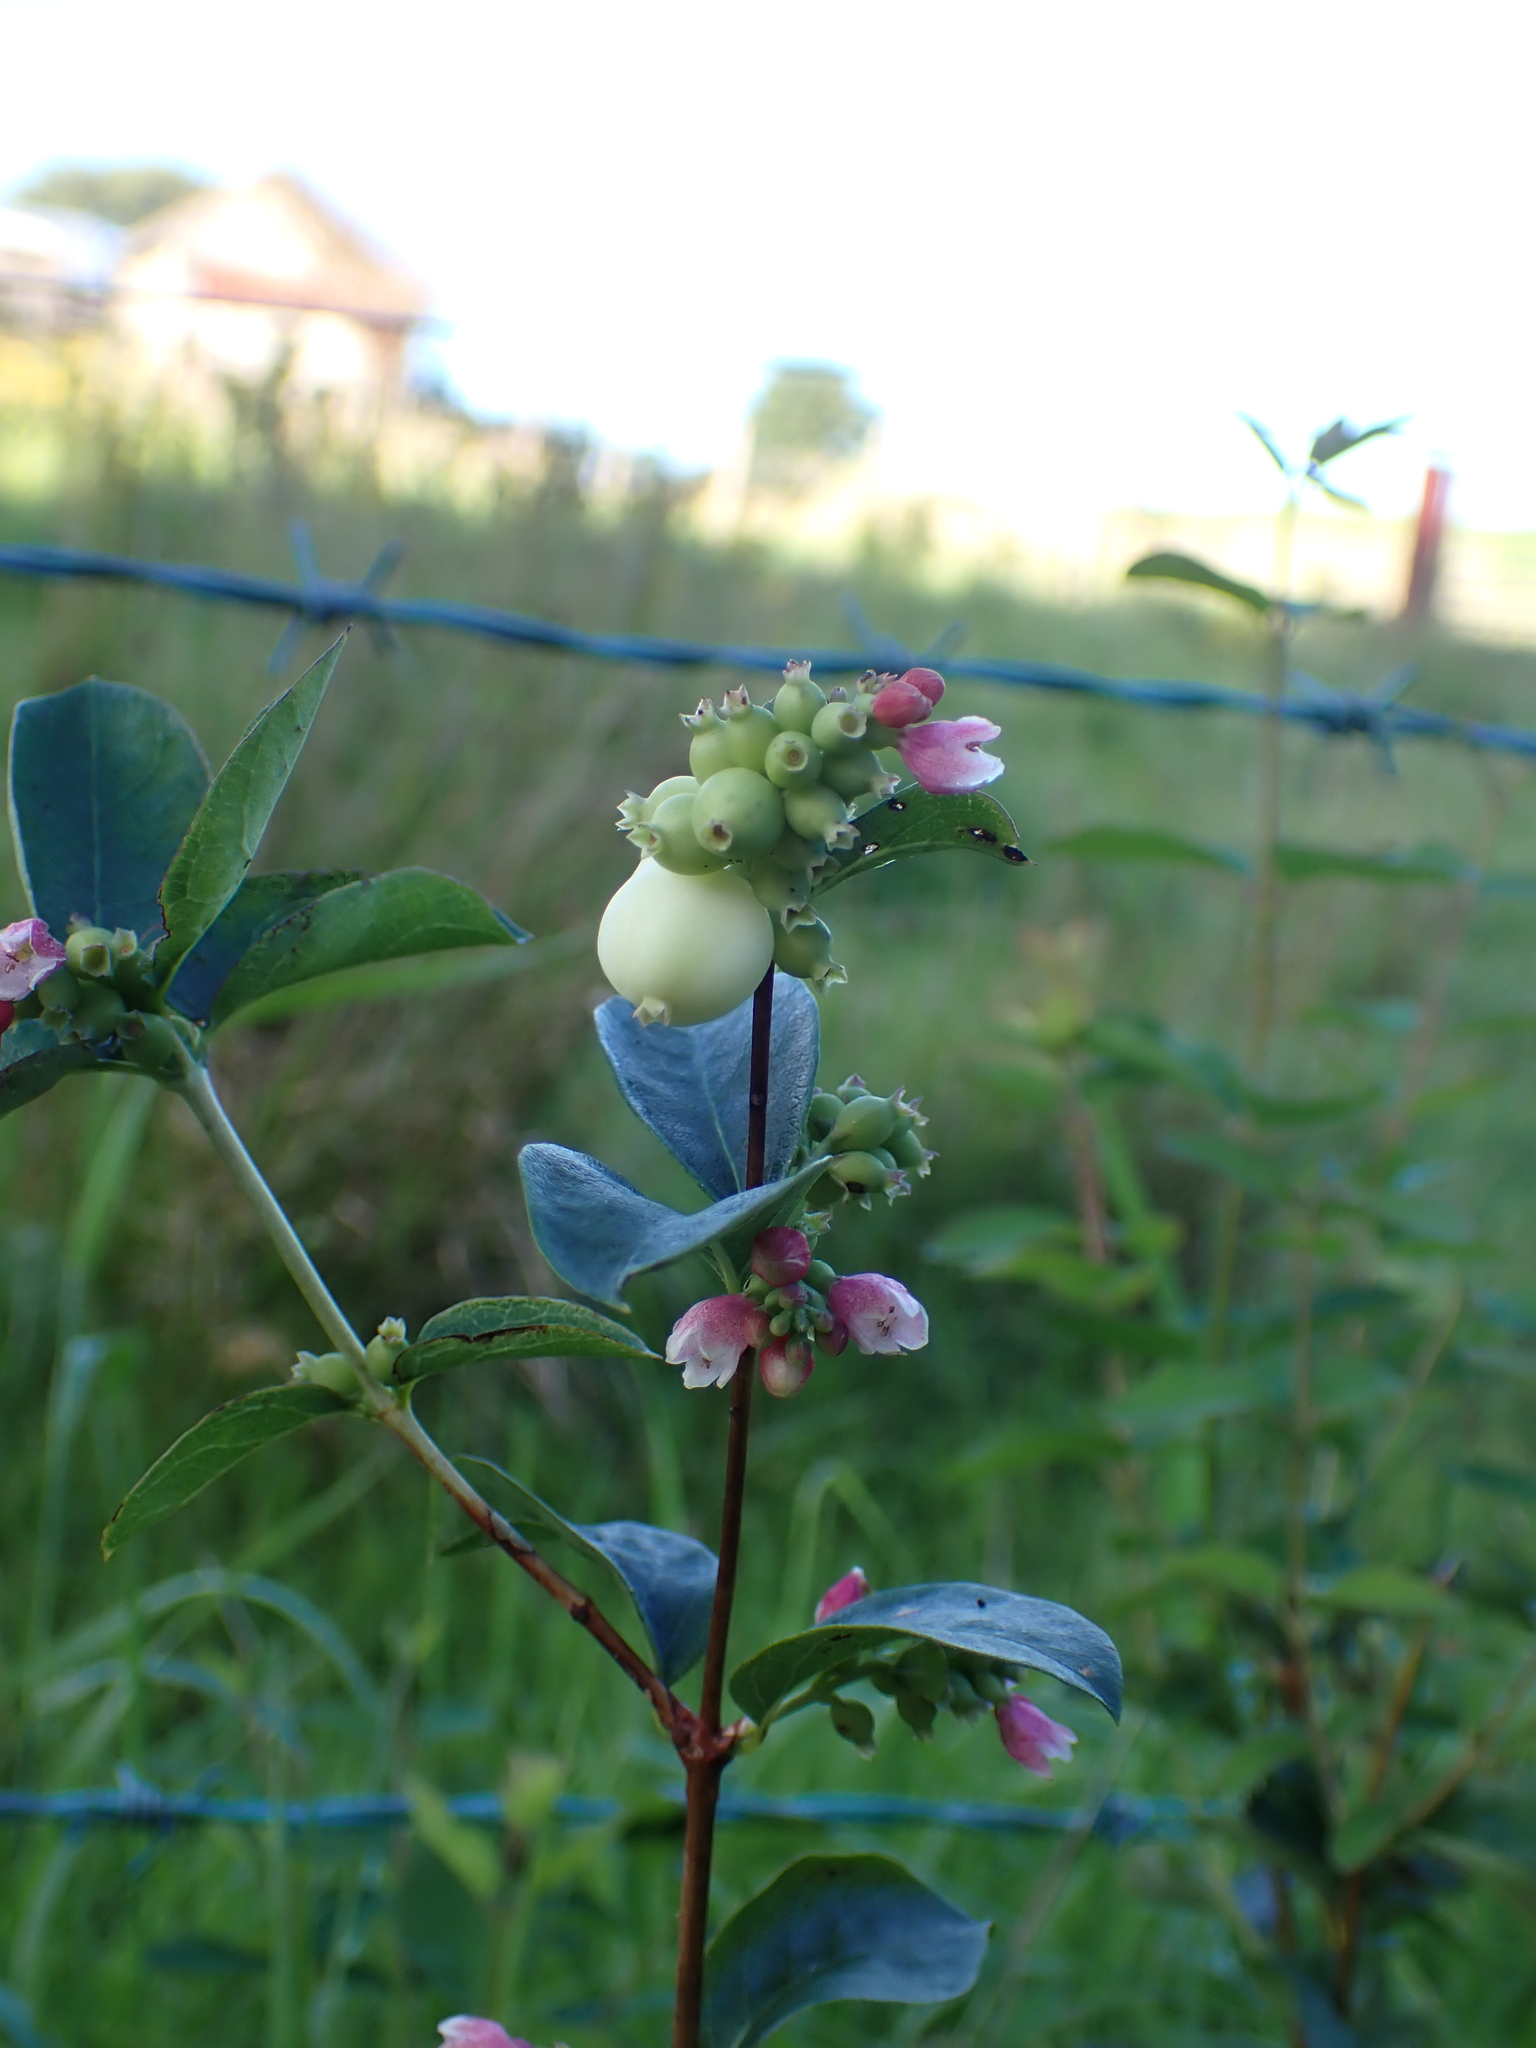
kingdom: Plantae
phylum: Tracheophyta
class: Magnoliopsida
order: Dipsacales
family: Caprifoliaceae
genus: Symphoricarpos
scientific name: Symphoricarpos albus
